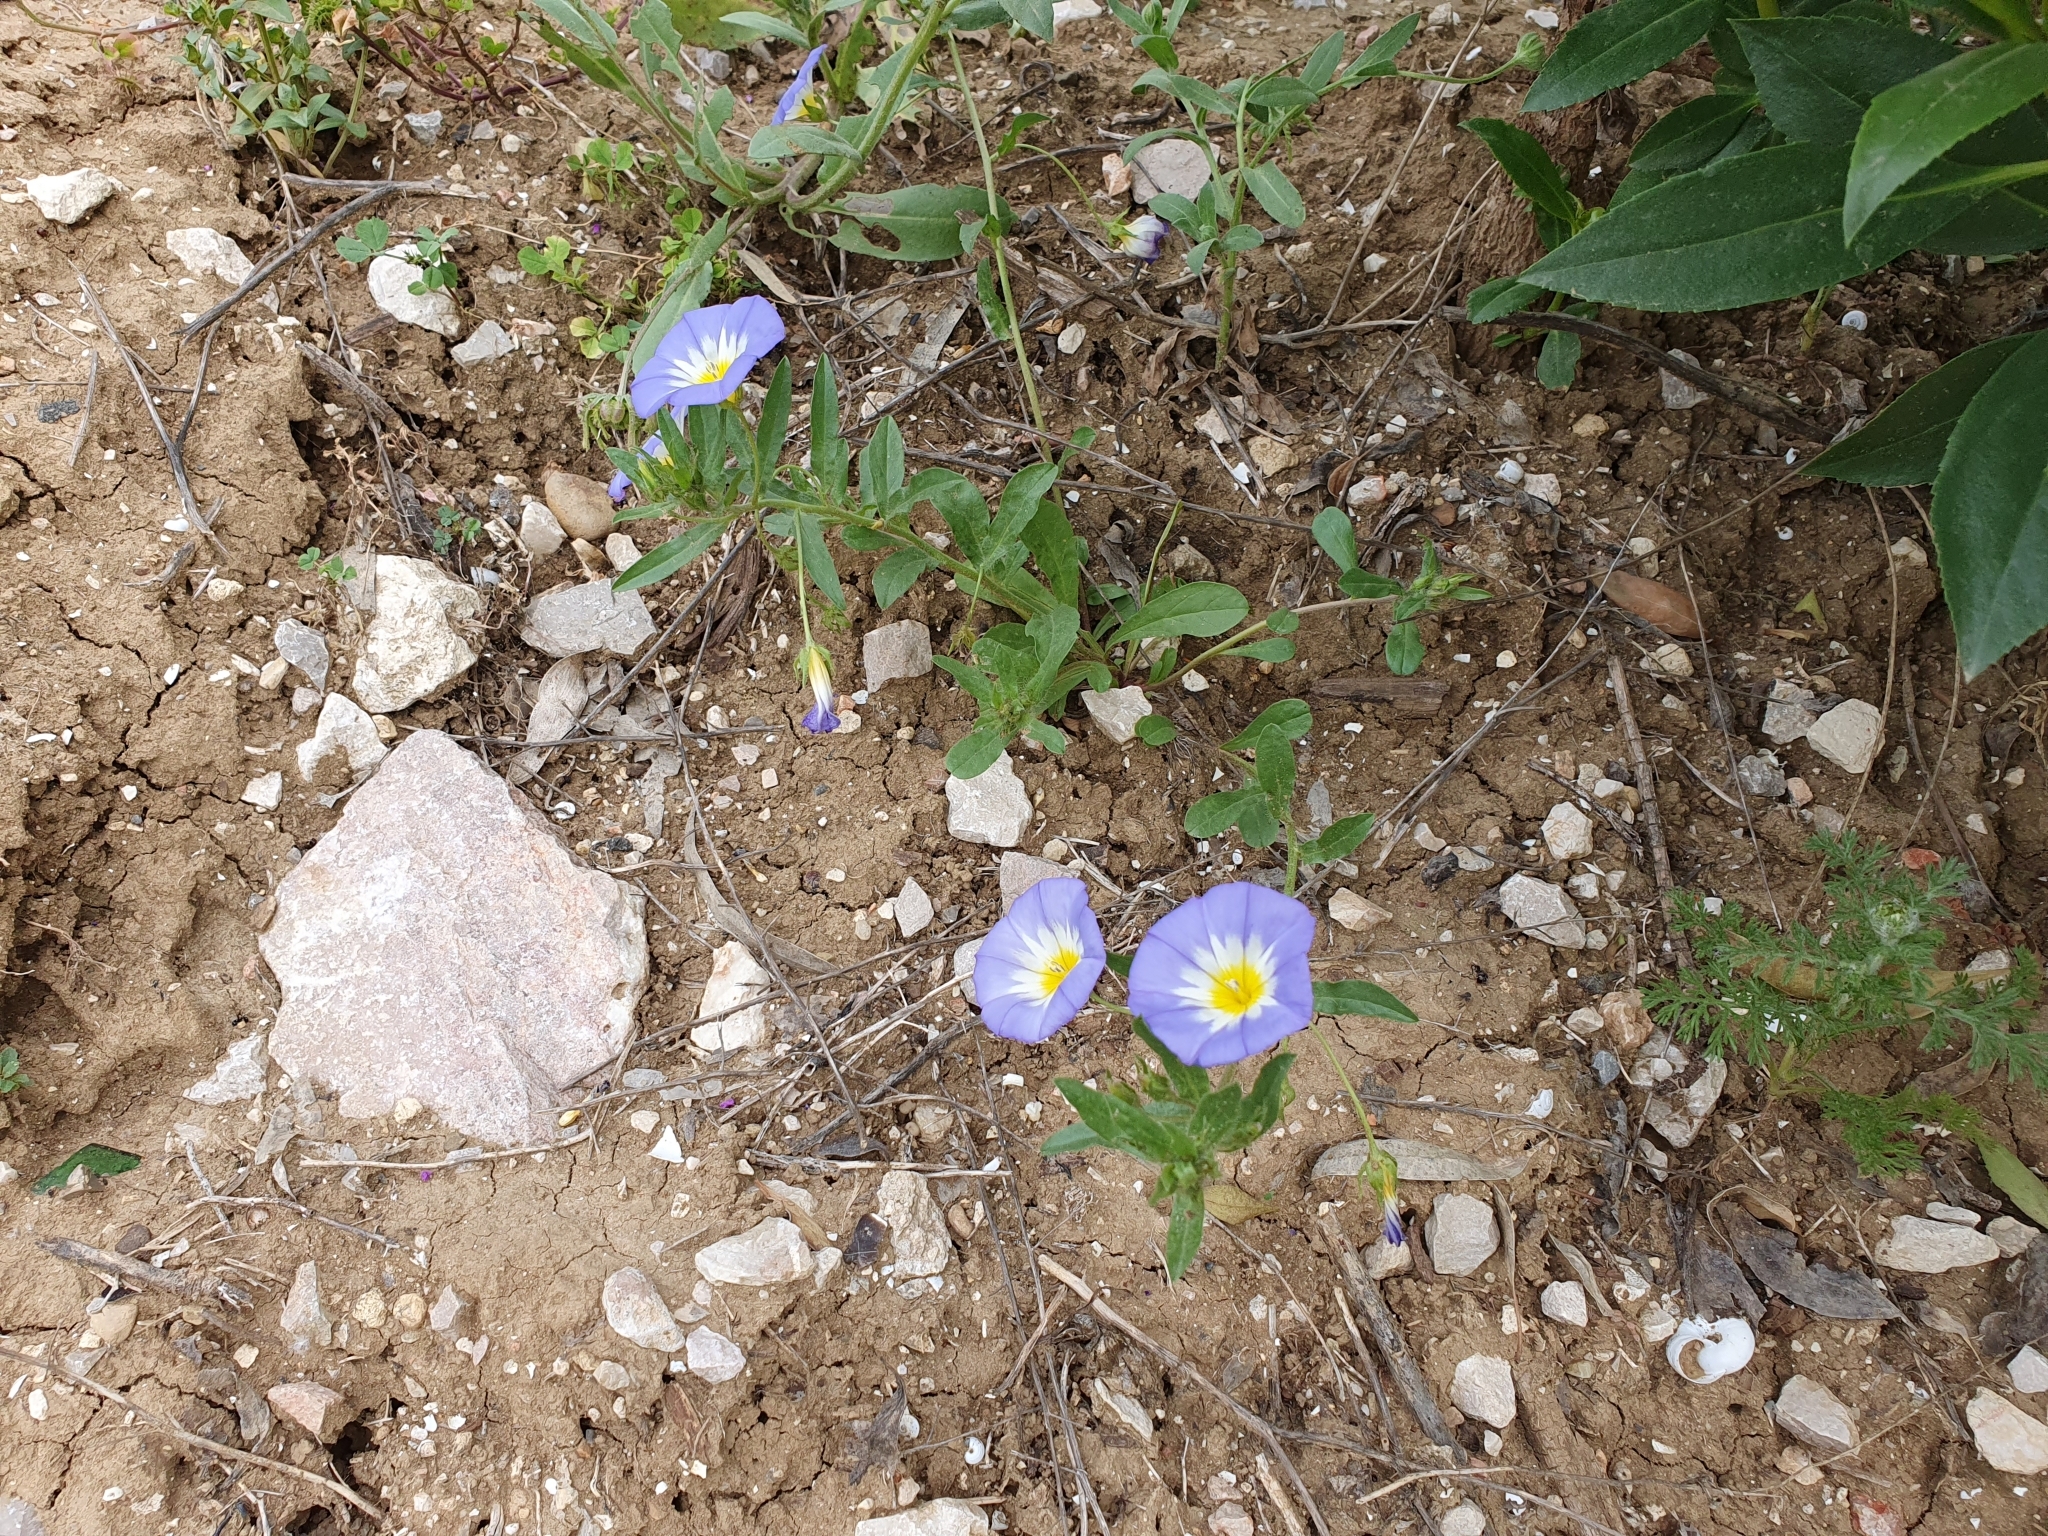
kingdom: Plantae
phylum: Tracheophyta
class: Magnoliopsida
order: Solanales
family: Convolvulaceae
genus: Convolvulus
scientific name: Convolvulus tricolor
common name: Dwarf morning-glory
